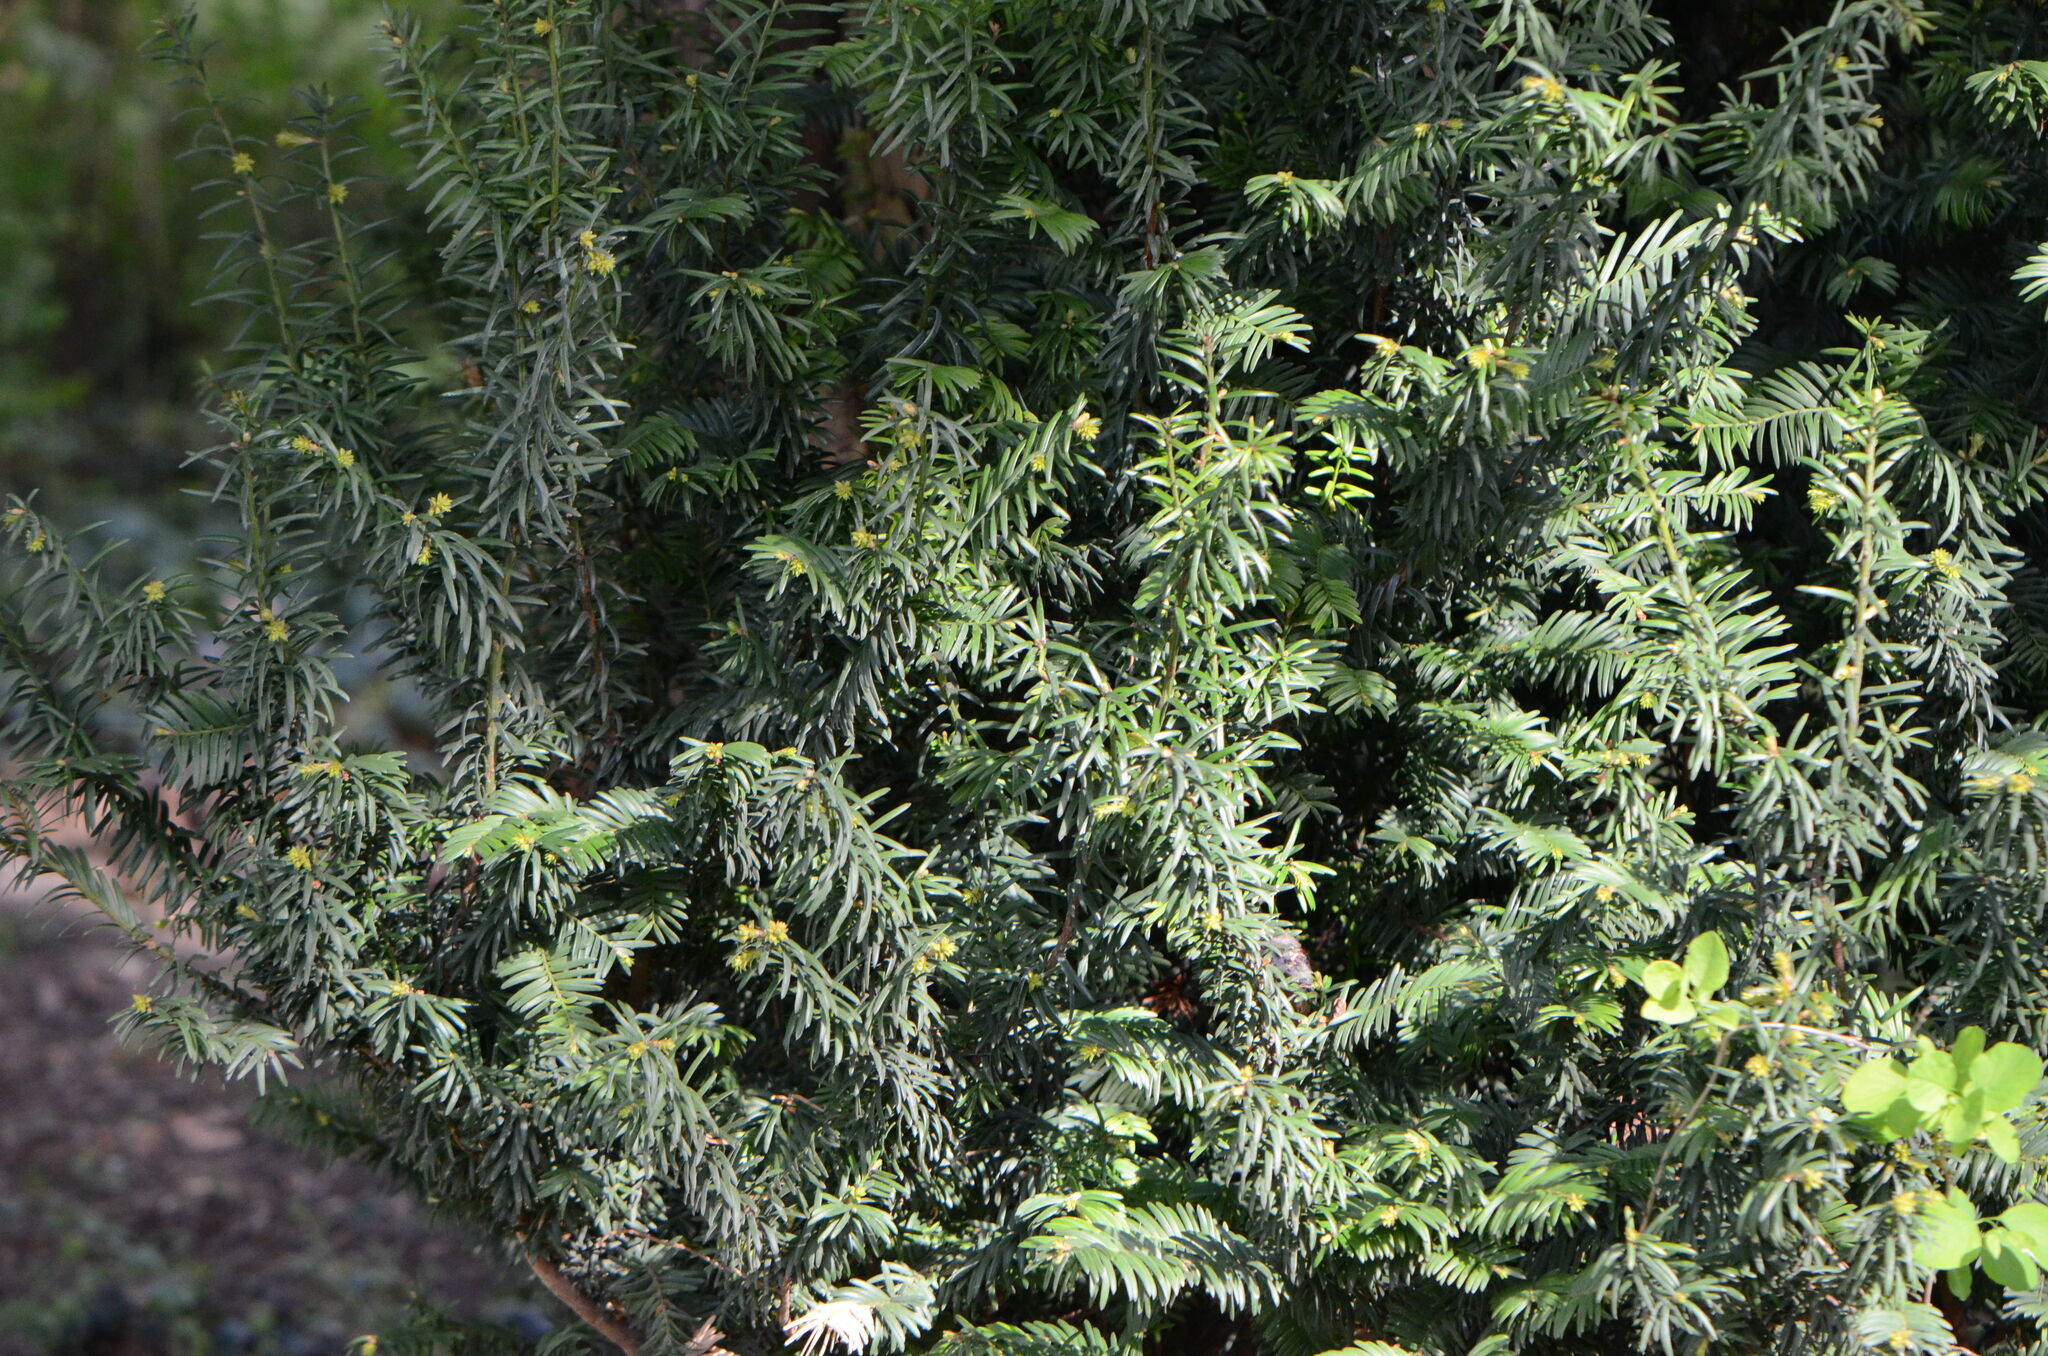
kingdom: Plantae
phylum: Tracheophyta
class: Pinopsida
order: Pinales
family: Taxaceae
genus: Taxus
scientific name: Taxus baccata
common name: Yew
